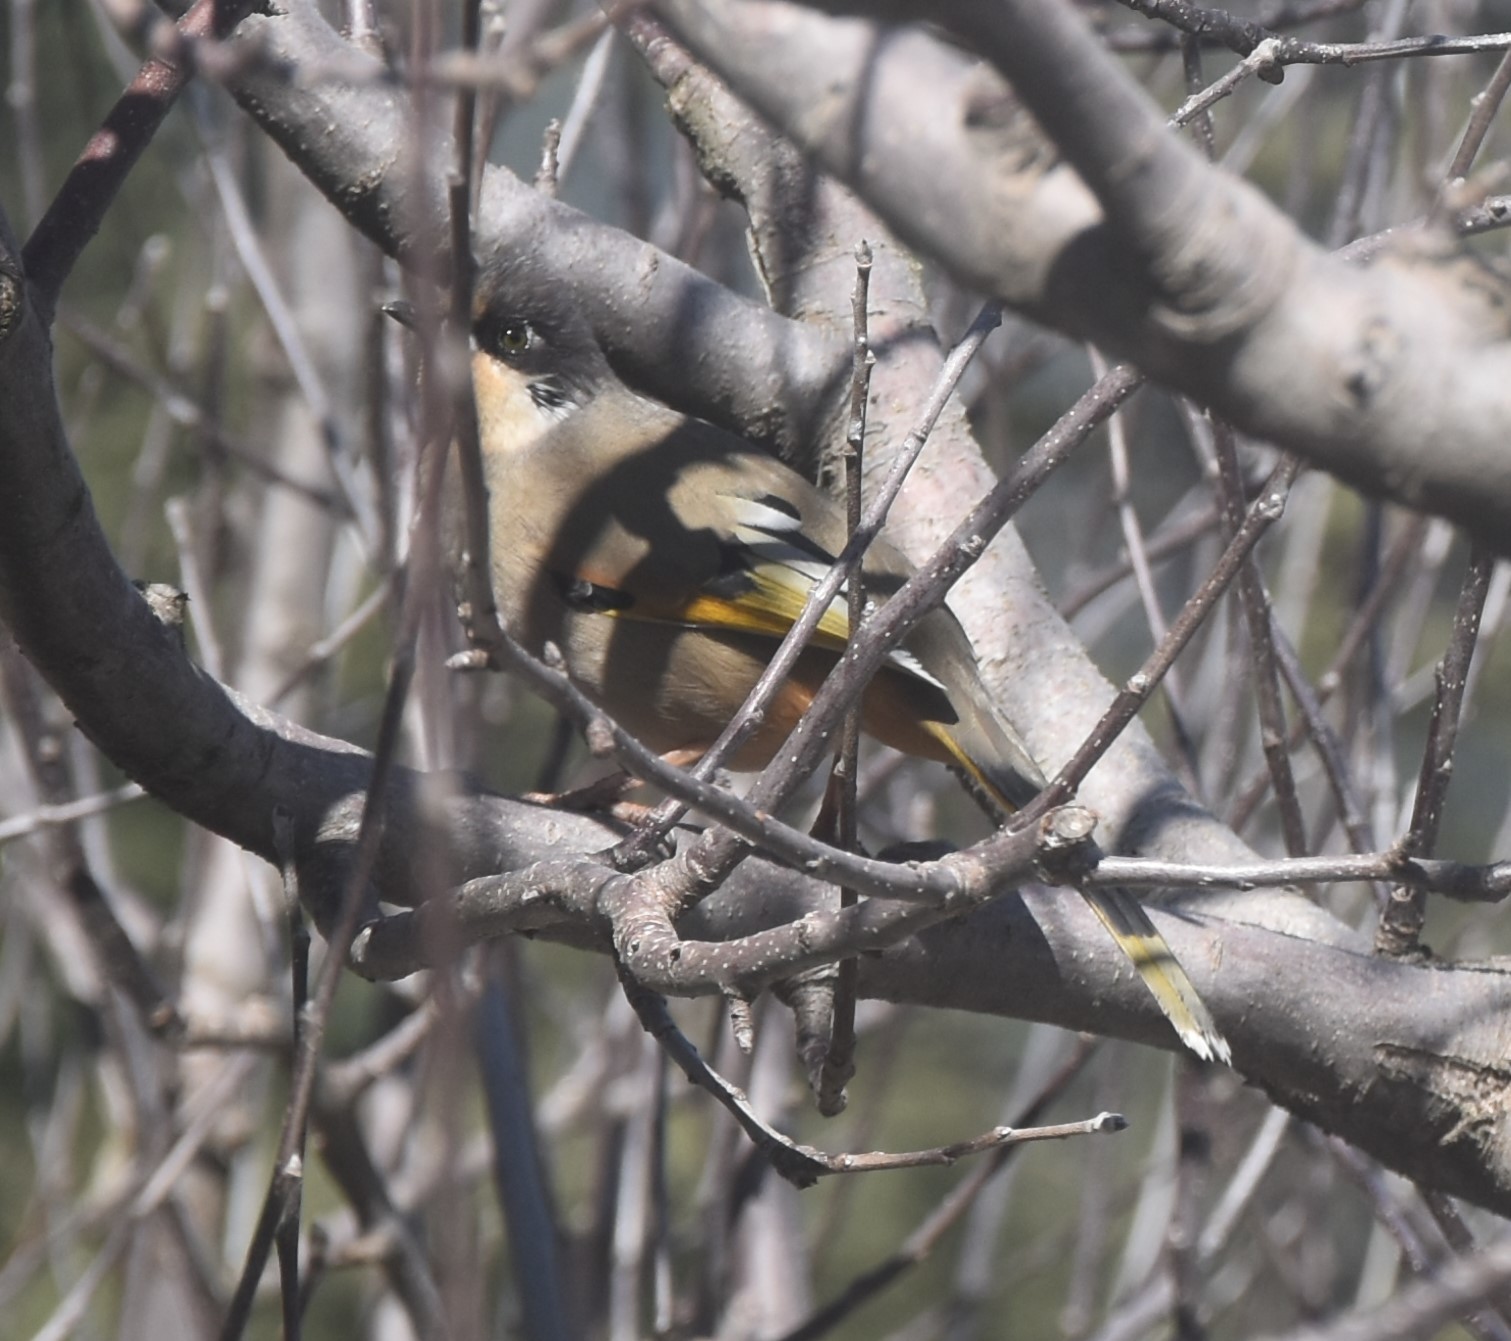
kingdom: Animalia
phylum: Chordata
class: Aves
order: Passeriformes
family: Leiothrichidae
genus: Trochalopteron
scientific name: Trochalopteron variegatum
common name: Variegated laughingthrush
